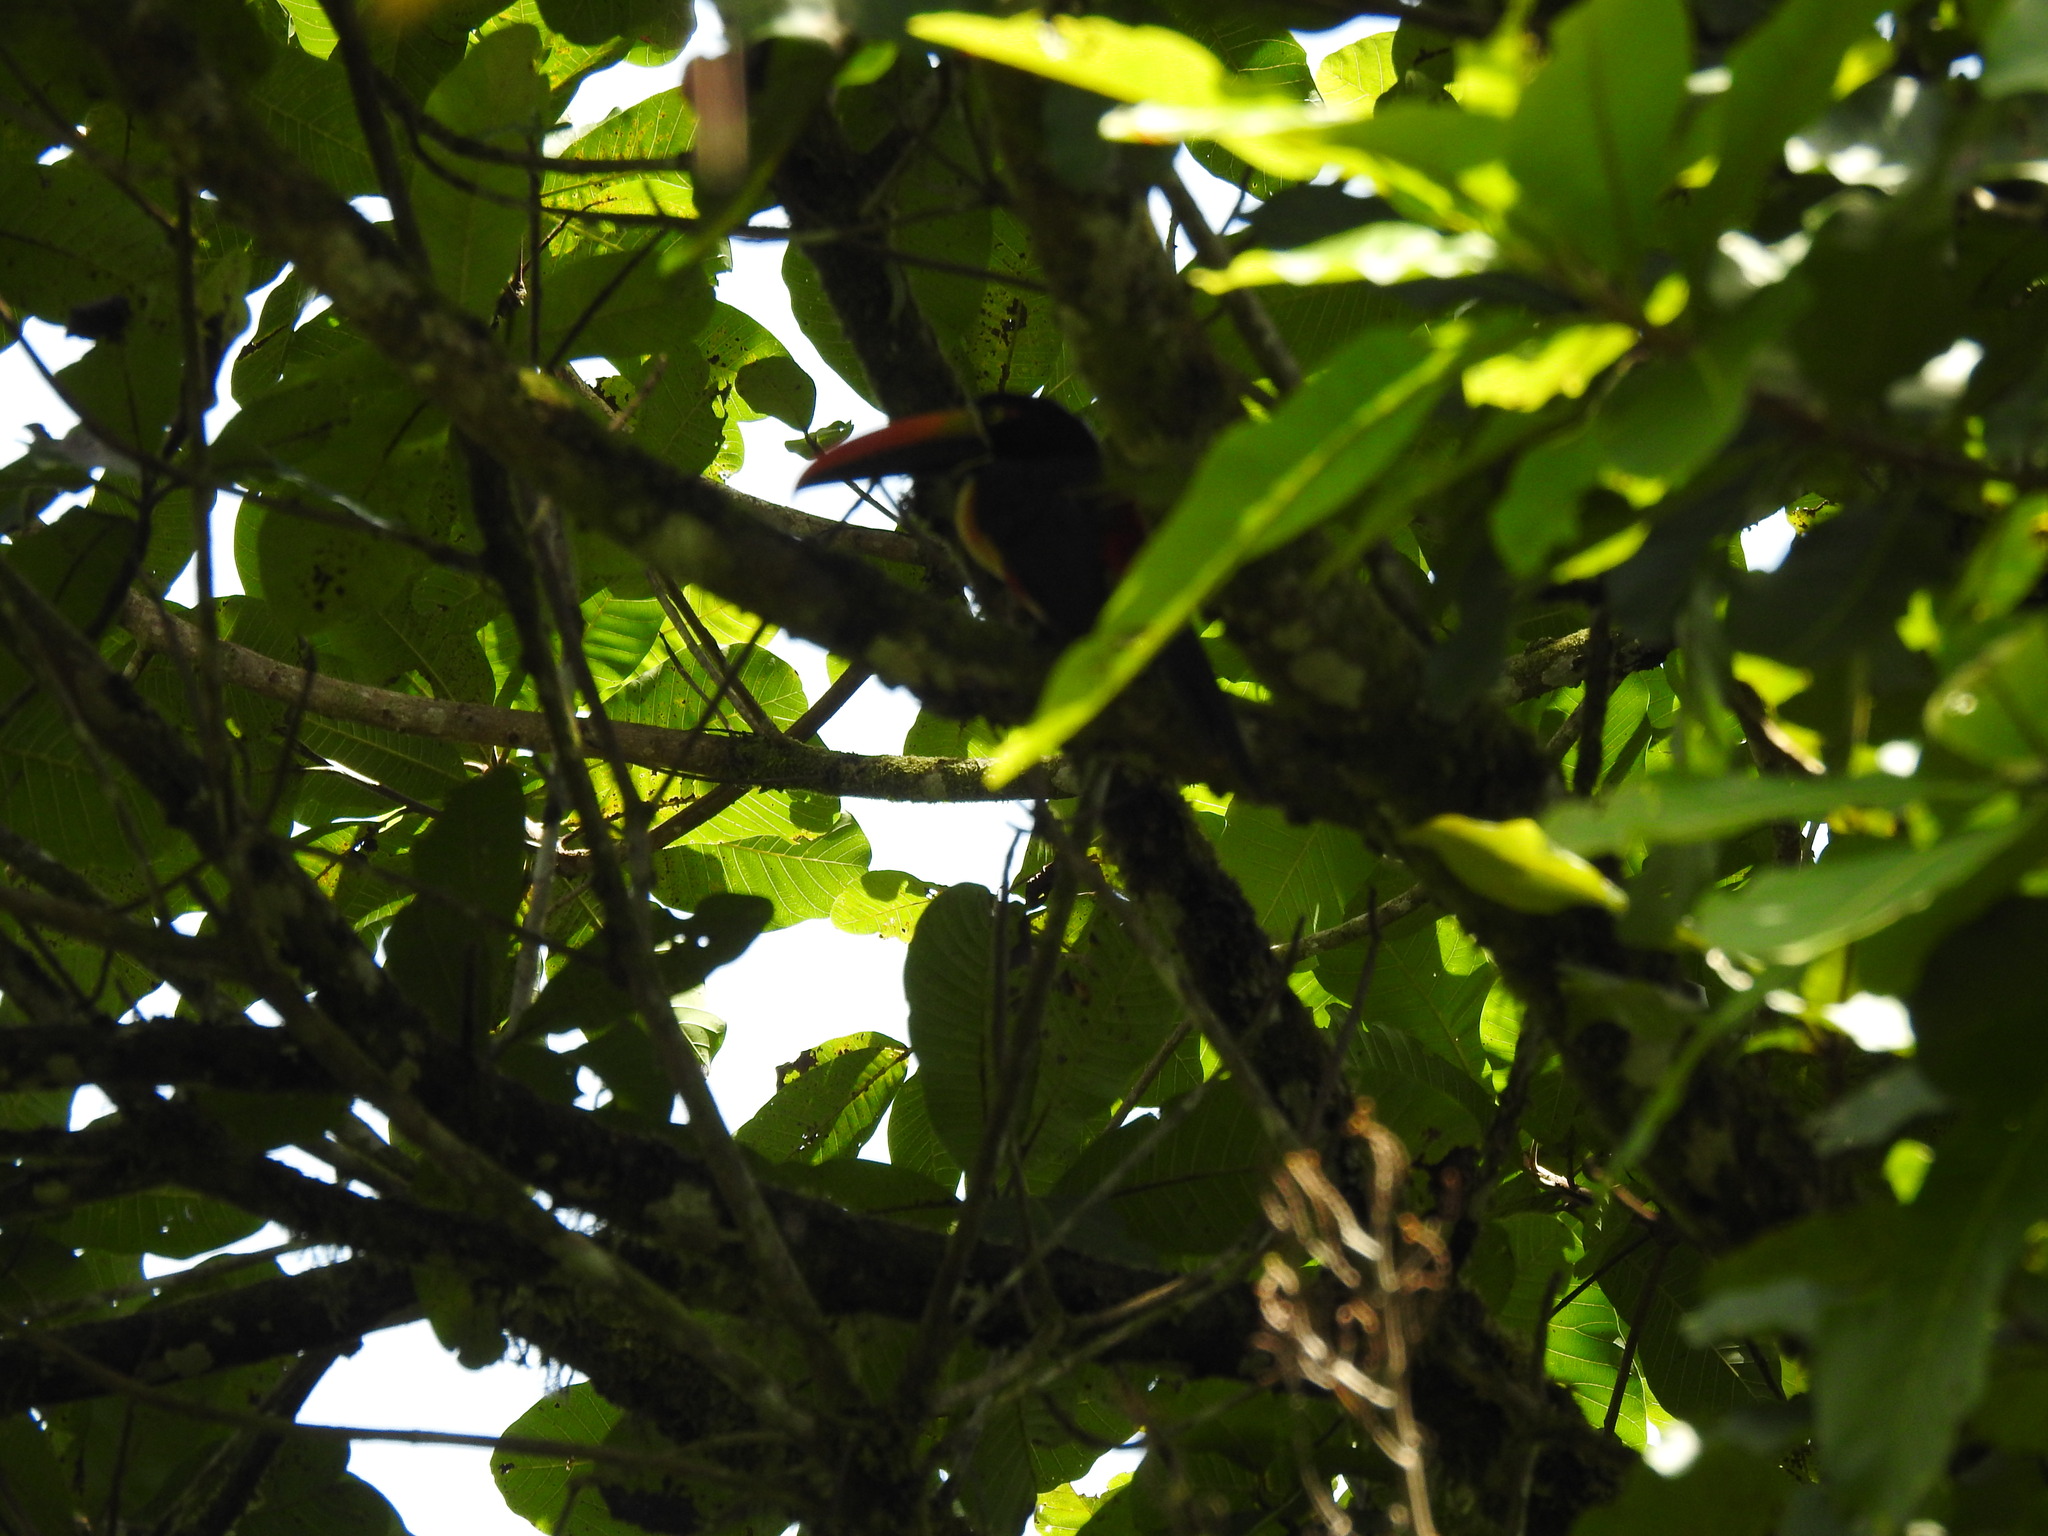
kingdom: Animalia
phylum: Chordata
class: Aves
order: Piciformes
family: Ramphastidae
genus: Pteroglossus
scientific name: Pteroglossus frantzii
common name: Fiery-billed aracari
